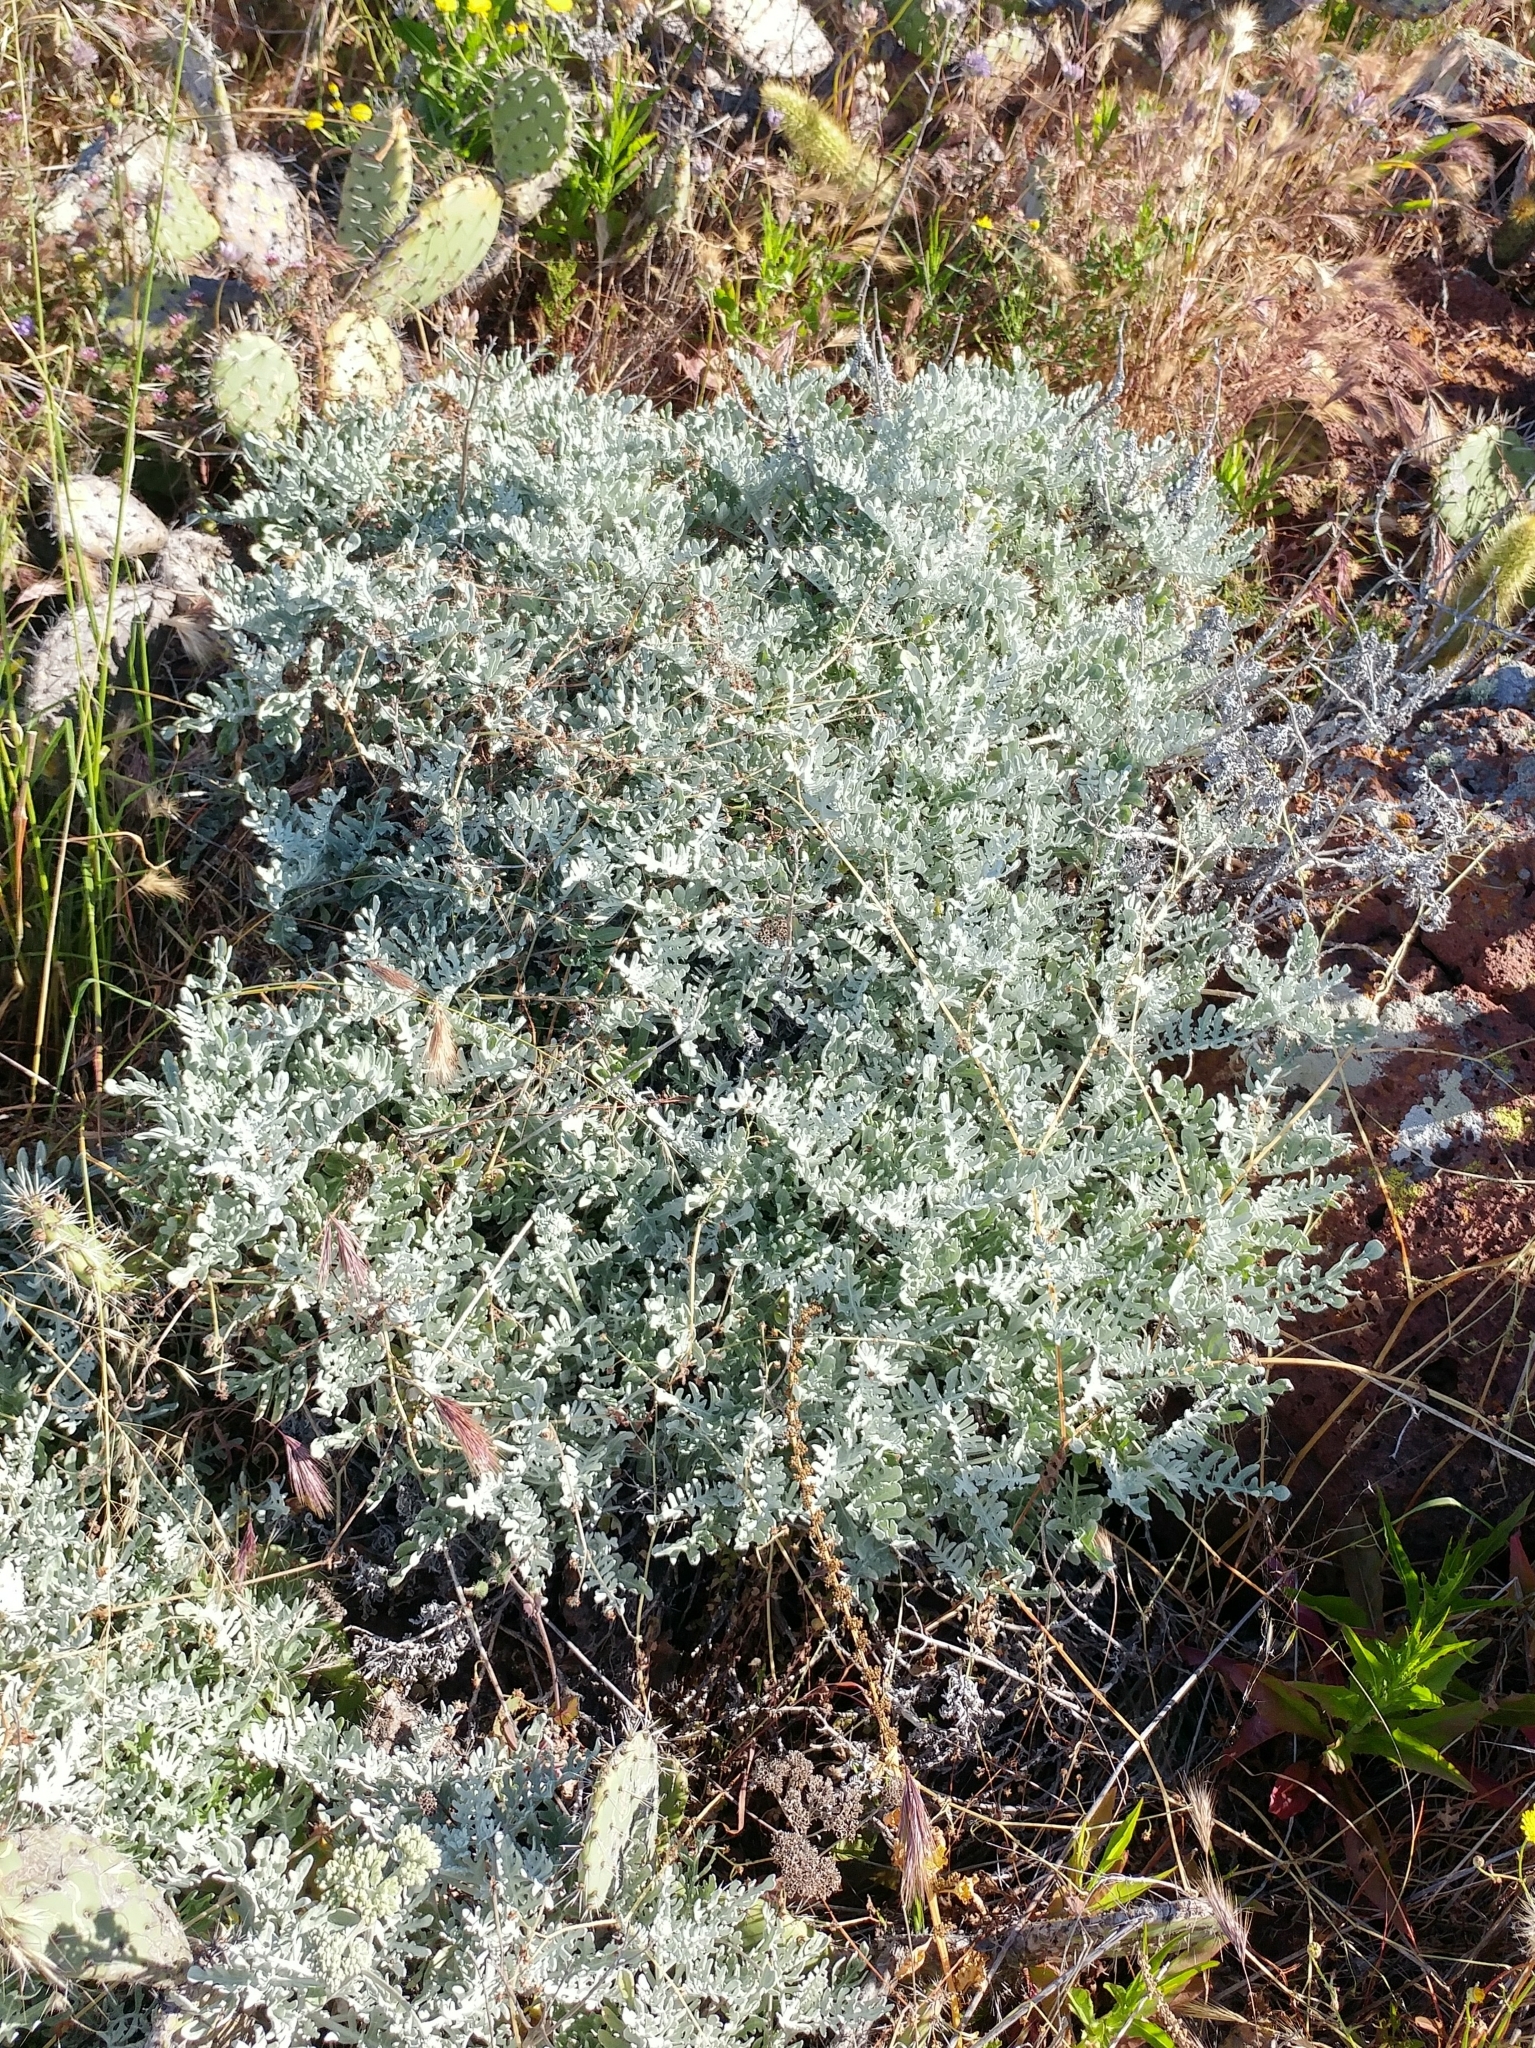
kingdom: Plantae
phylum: Tracheophyta
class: Magnoliopsida
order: Asterales
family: Asteraceae
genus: Constancea
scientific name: Constancea nevinii
